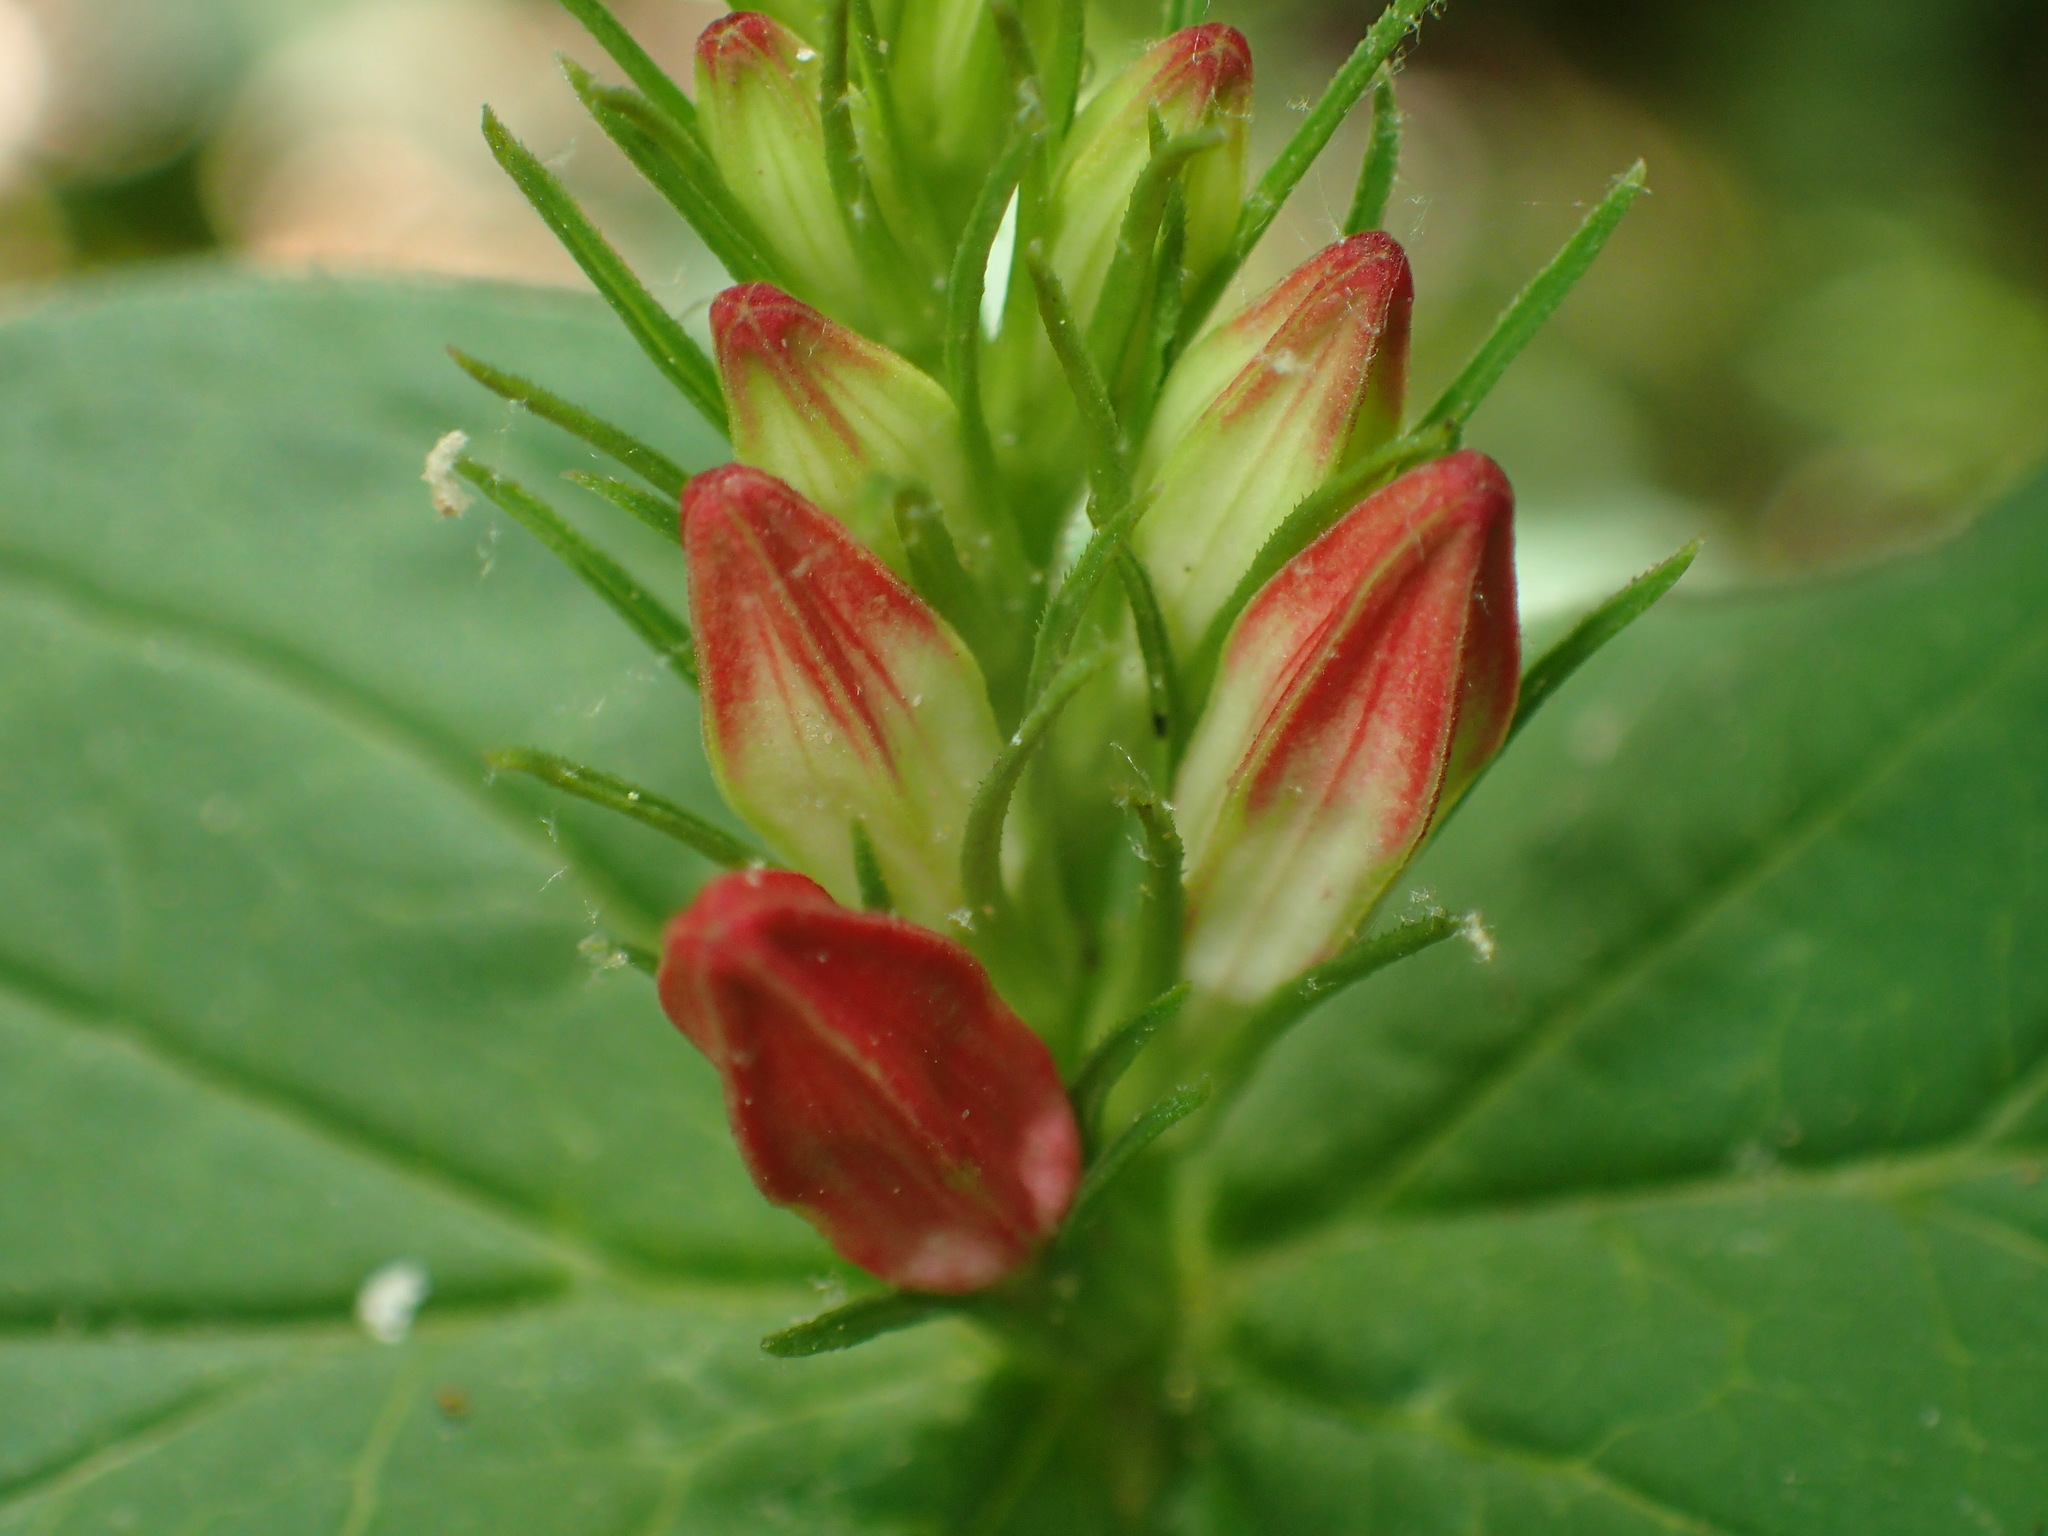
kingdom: Plantae
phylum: Tracheophyta
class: Magnoliopsida
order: Gentianales
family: Loganiaceae
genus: Spigelia
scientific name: Spigelia marilandica
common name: Indian-pink
